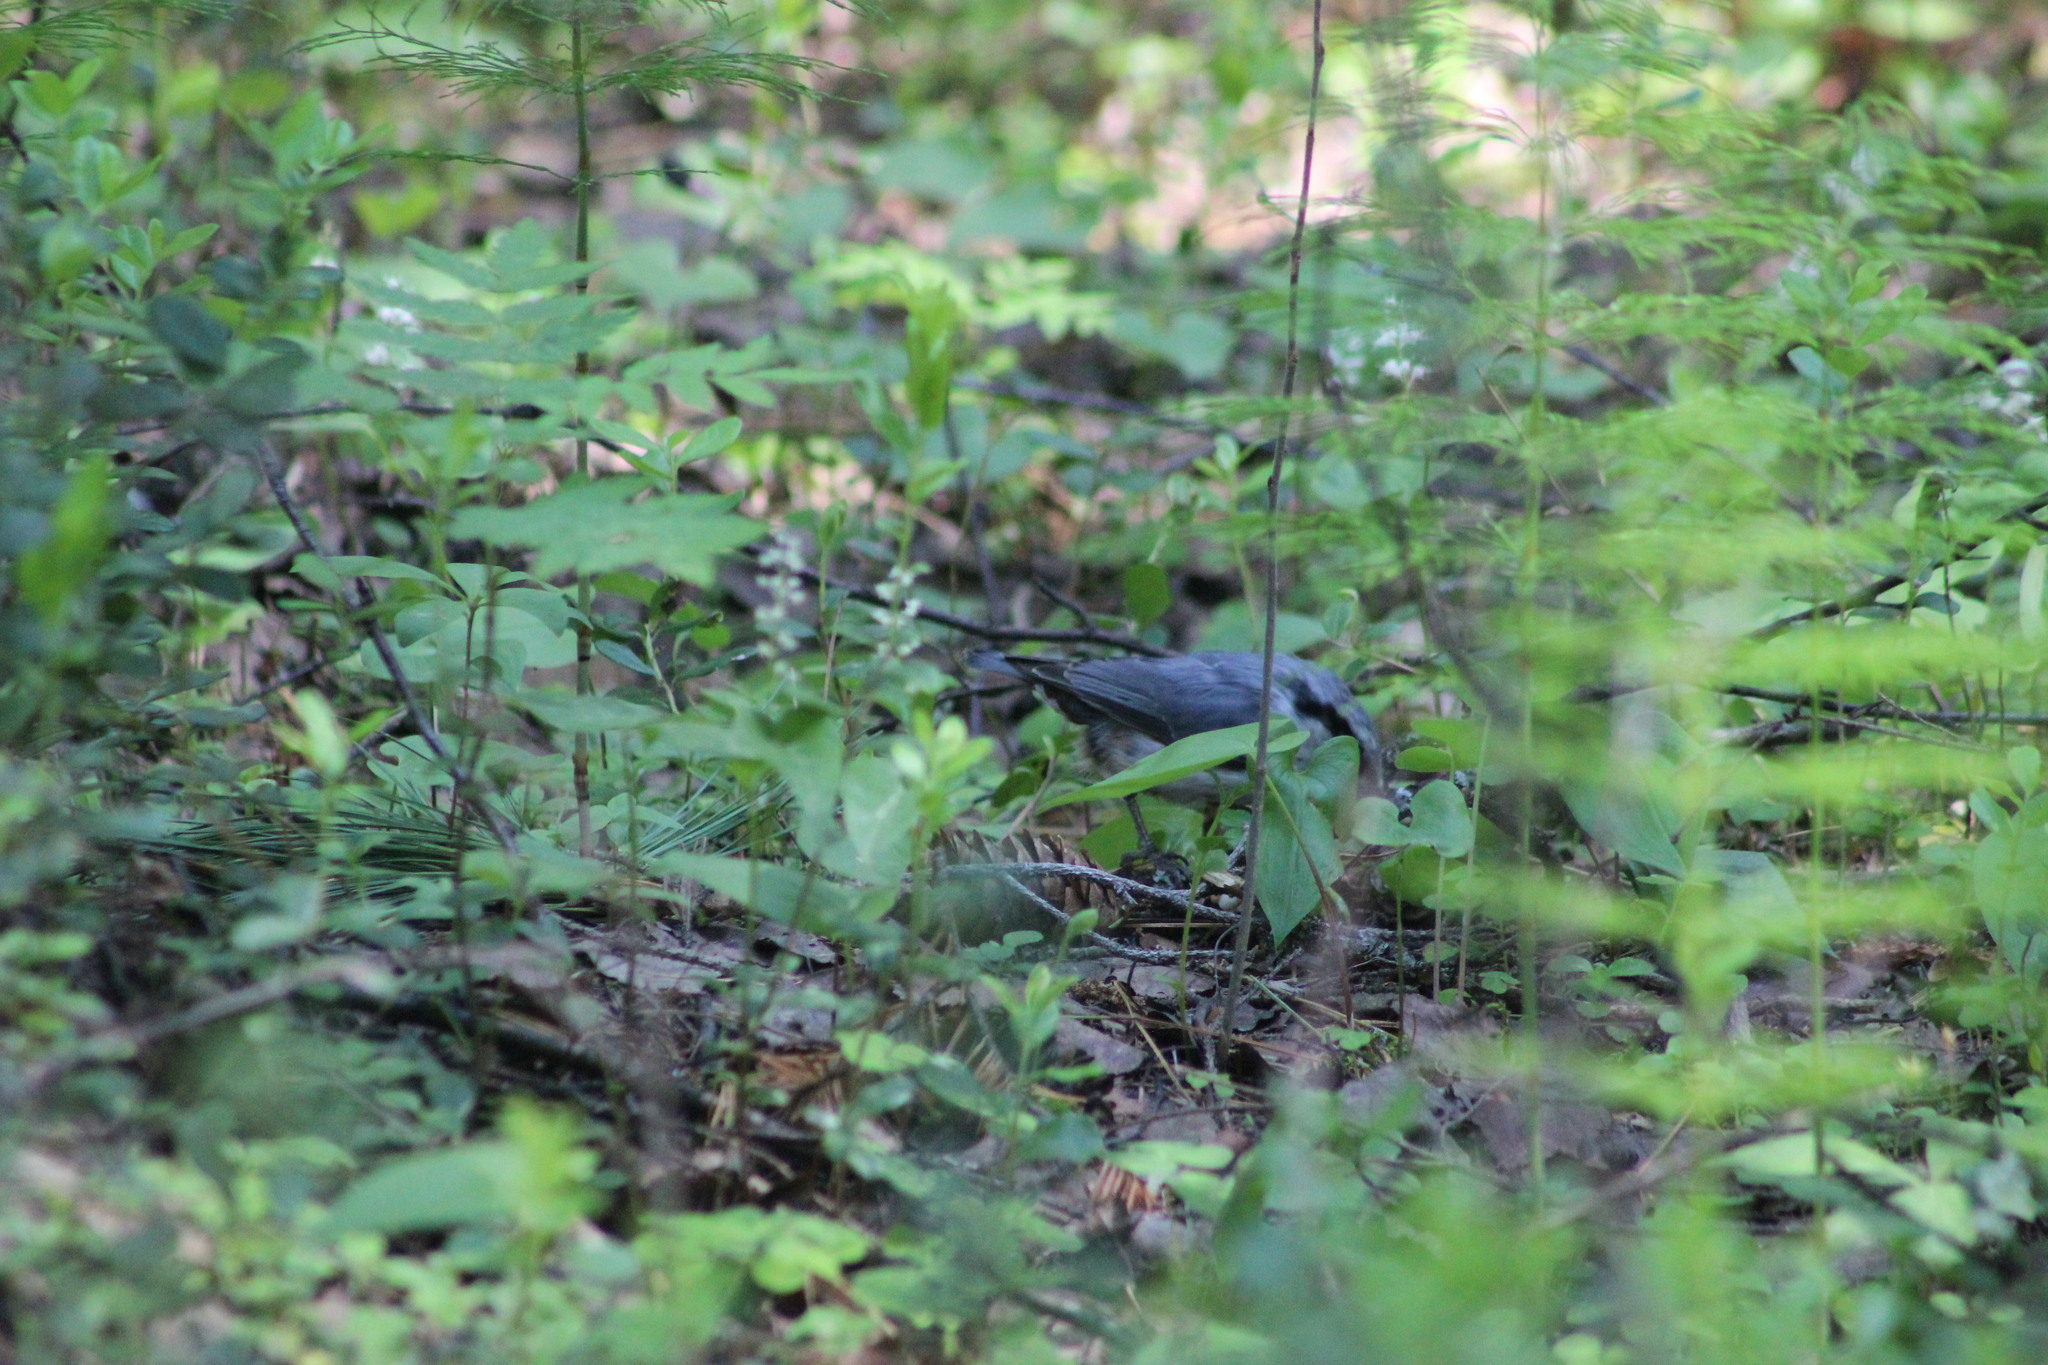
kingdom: Animalia
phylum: Chordata
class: Aves
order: Passeriformes
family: Sittidae
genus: Sitta
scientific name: Sitta europaea
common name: Eurasian nuthatch
